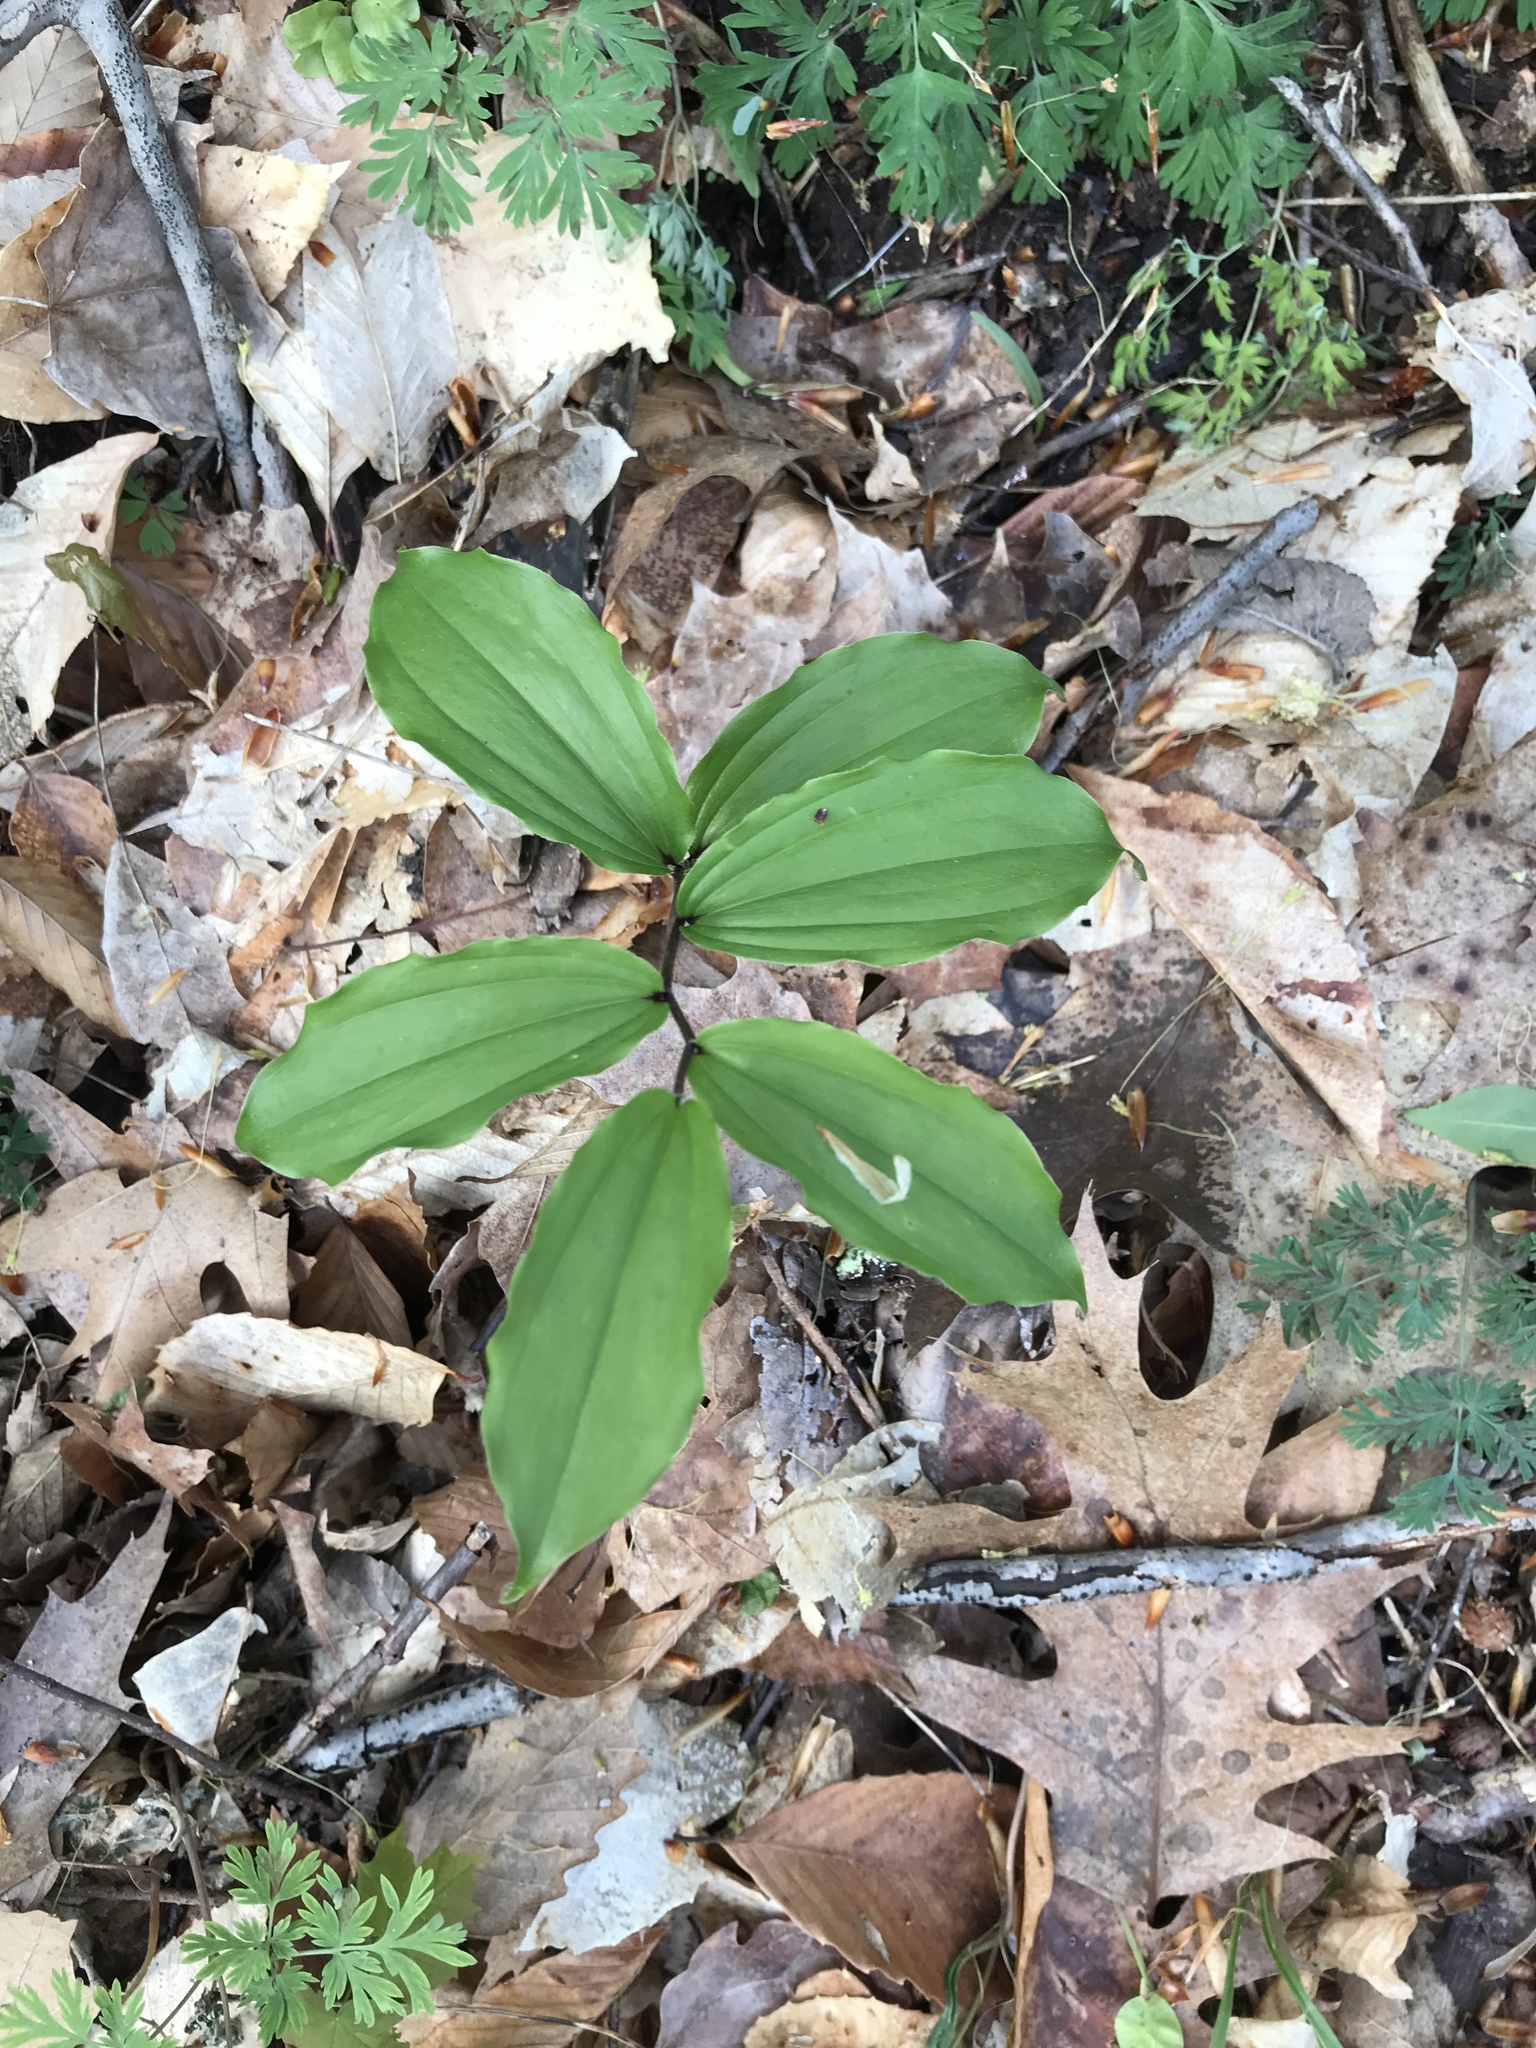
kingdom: Plantae
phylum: Tracheophyta
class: Liliopsida
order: Asparagales
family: Asparagaceae
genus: Maianthemum
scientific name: Maianthemum racemosum
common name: False spikenard
